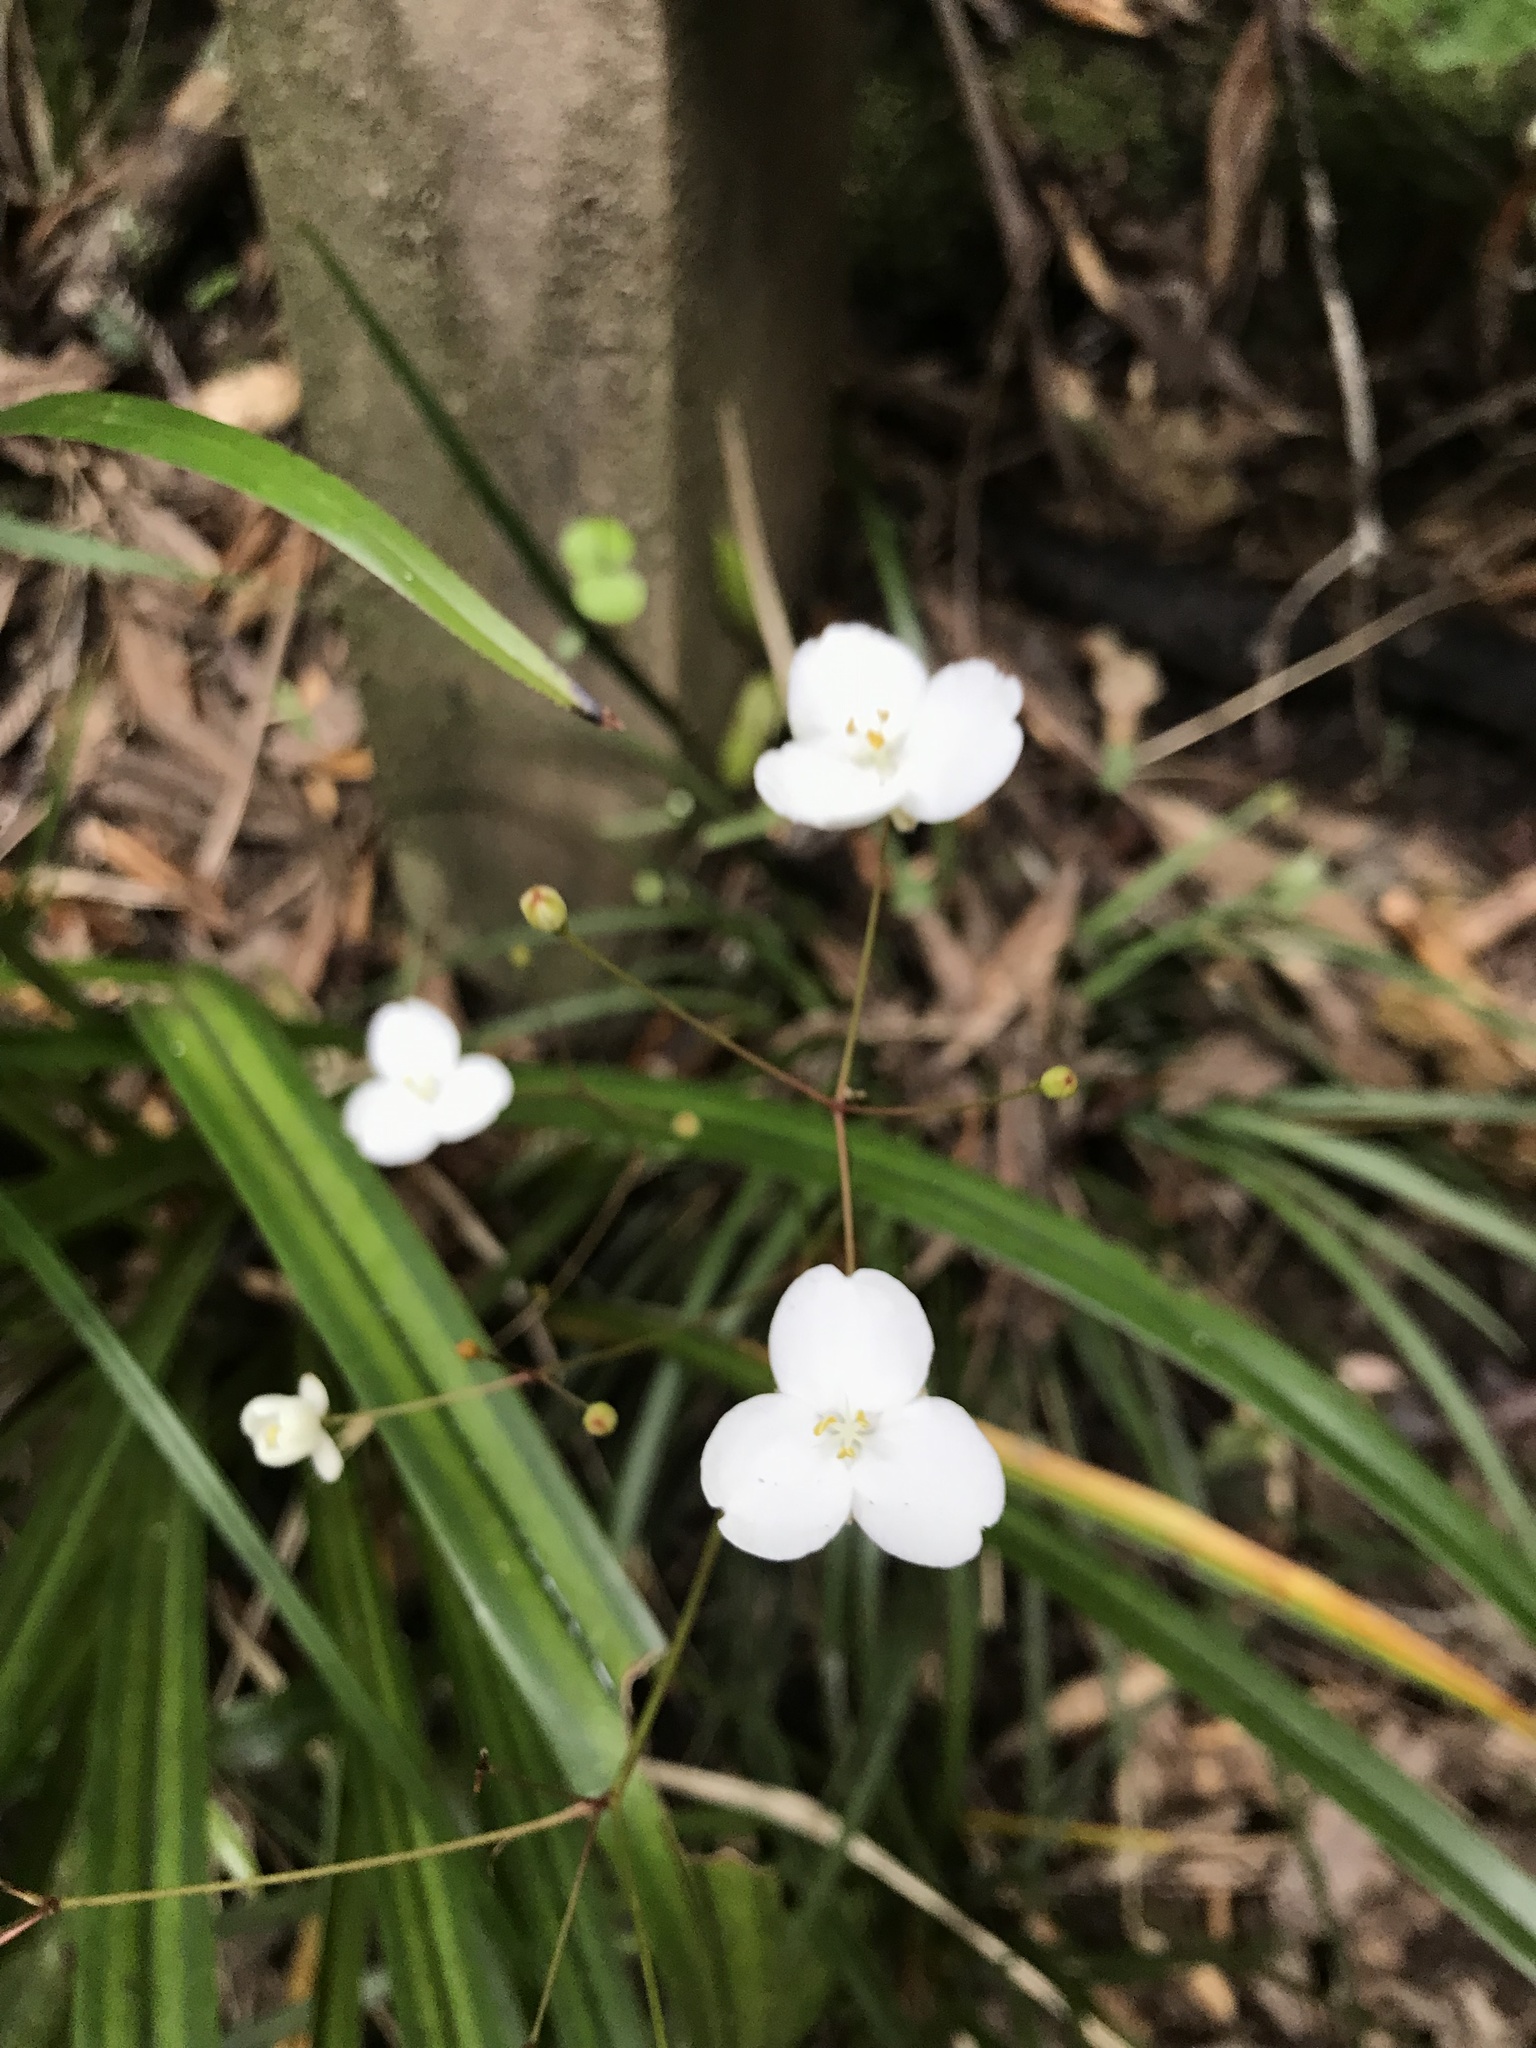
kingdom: Plantae
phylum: Tracheophyta
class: Liliopsida
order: Asparagales
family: Iridaceae
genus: Libertia
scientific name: Libertia grandiflora
